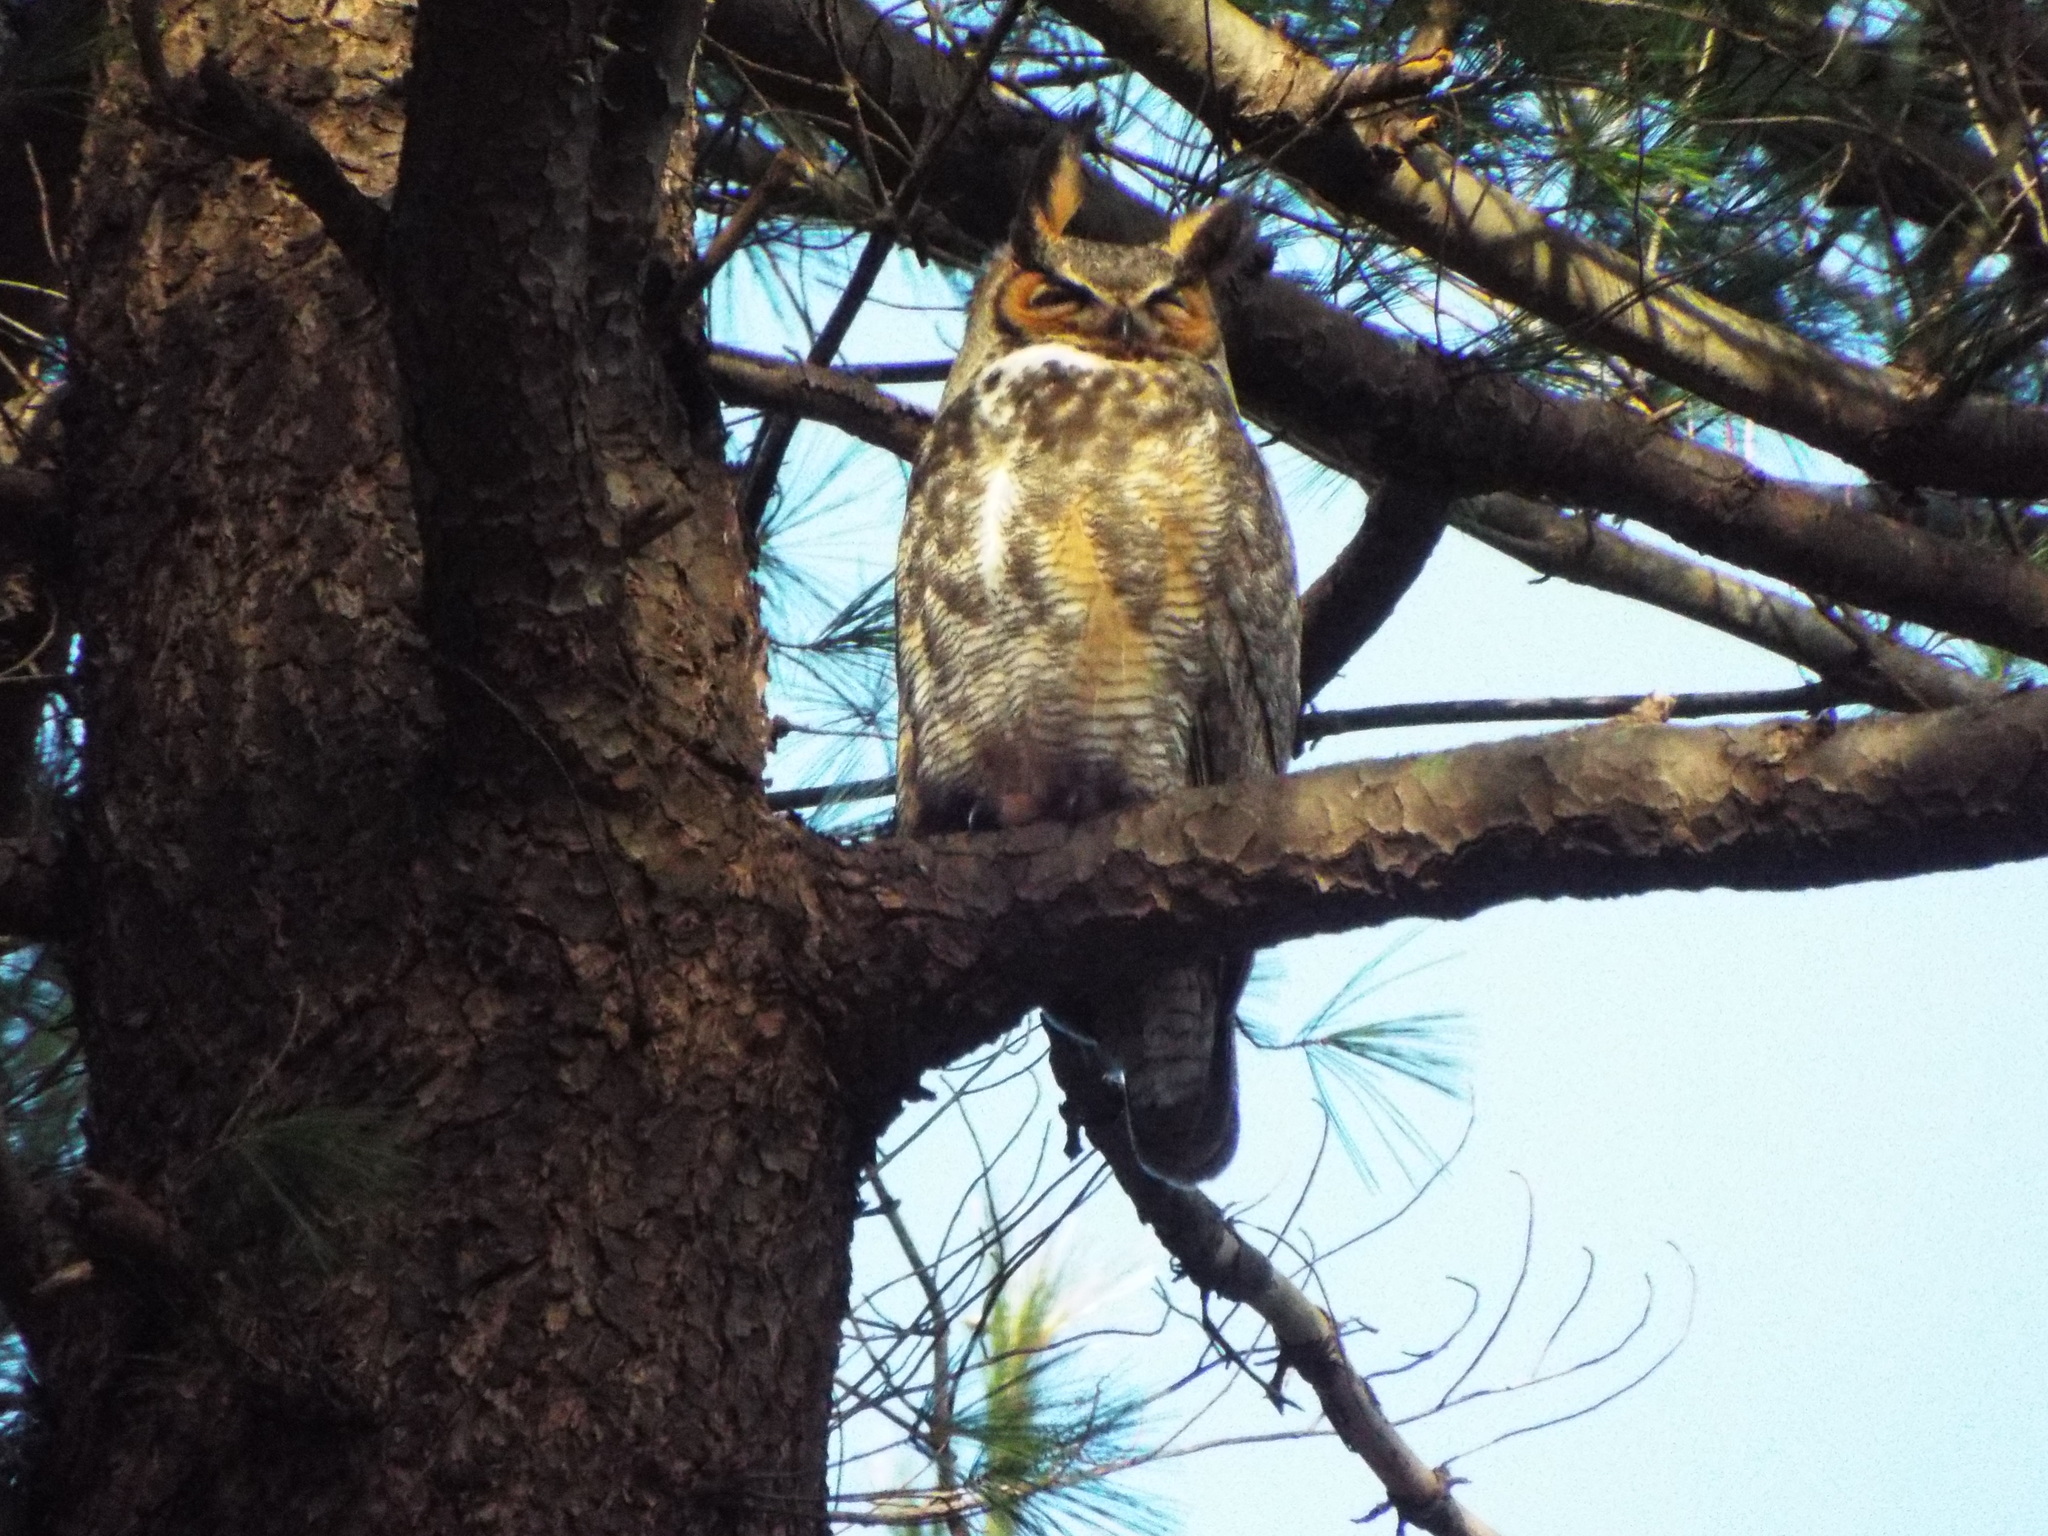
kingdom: Animalia
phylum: Chordata
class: Aves
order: Strigiformes
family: Strigidae
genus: Bubo
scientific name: Bubo virginianus
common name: Great horned owl
